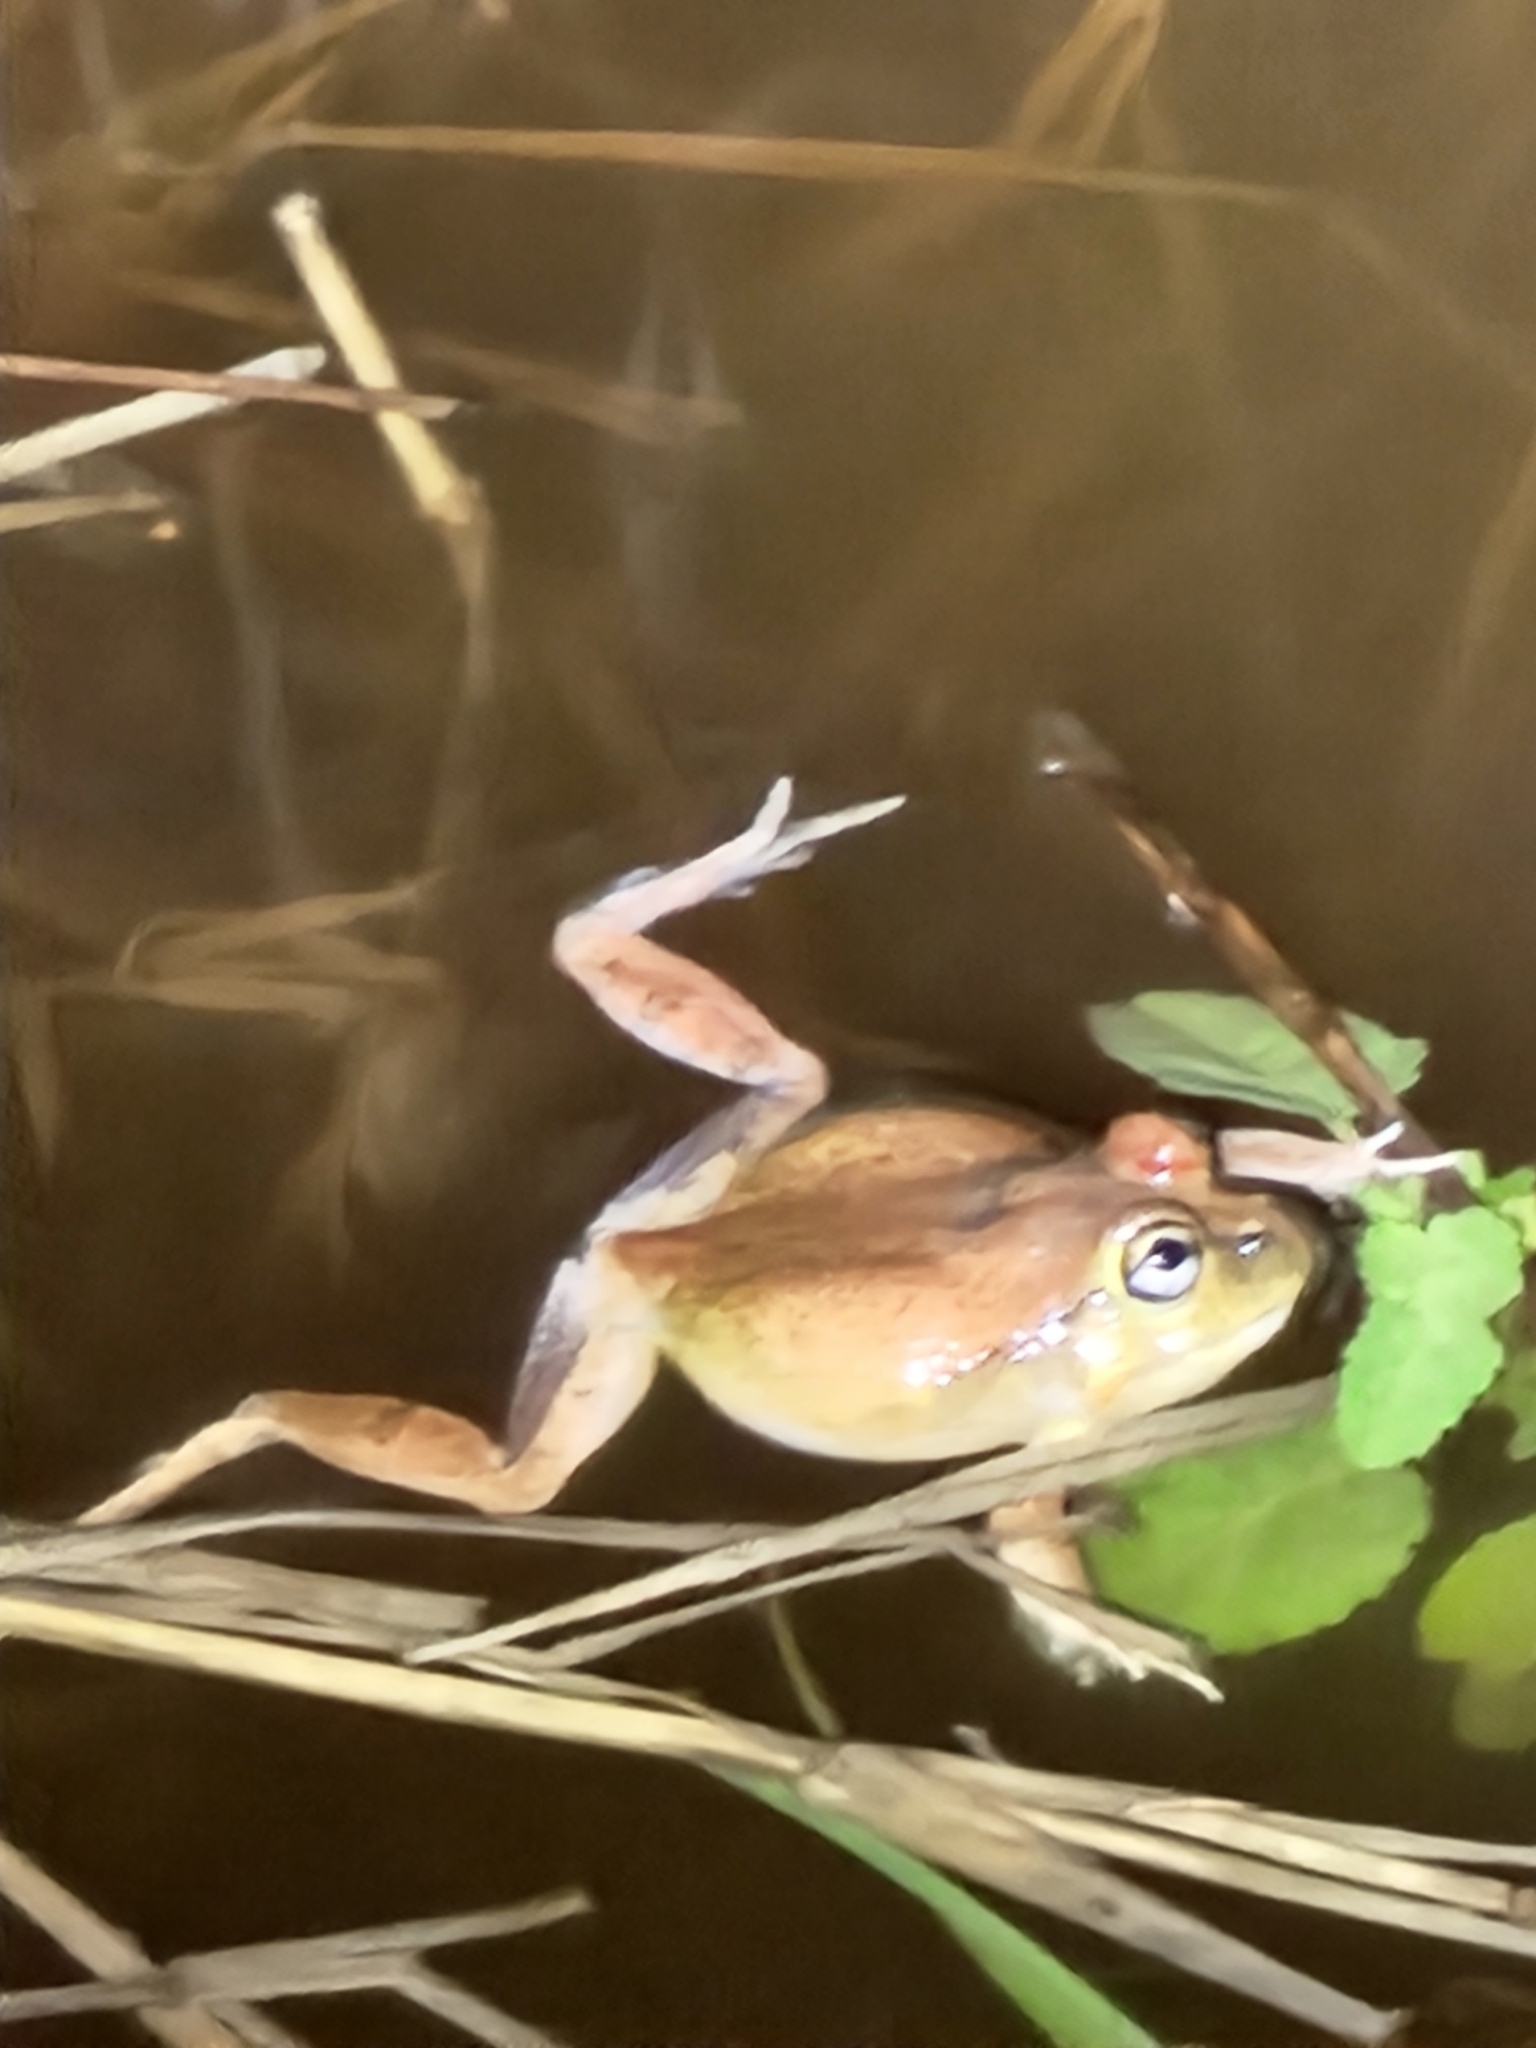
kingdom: Animalia
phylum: Chordata
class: Amphibia
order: Anura
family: Limnodynastidae
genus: Platyplectrum
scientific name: Platyplectrum ornatum
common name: Ornate burrowing frog
